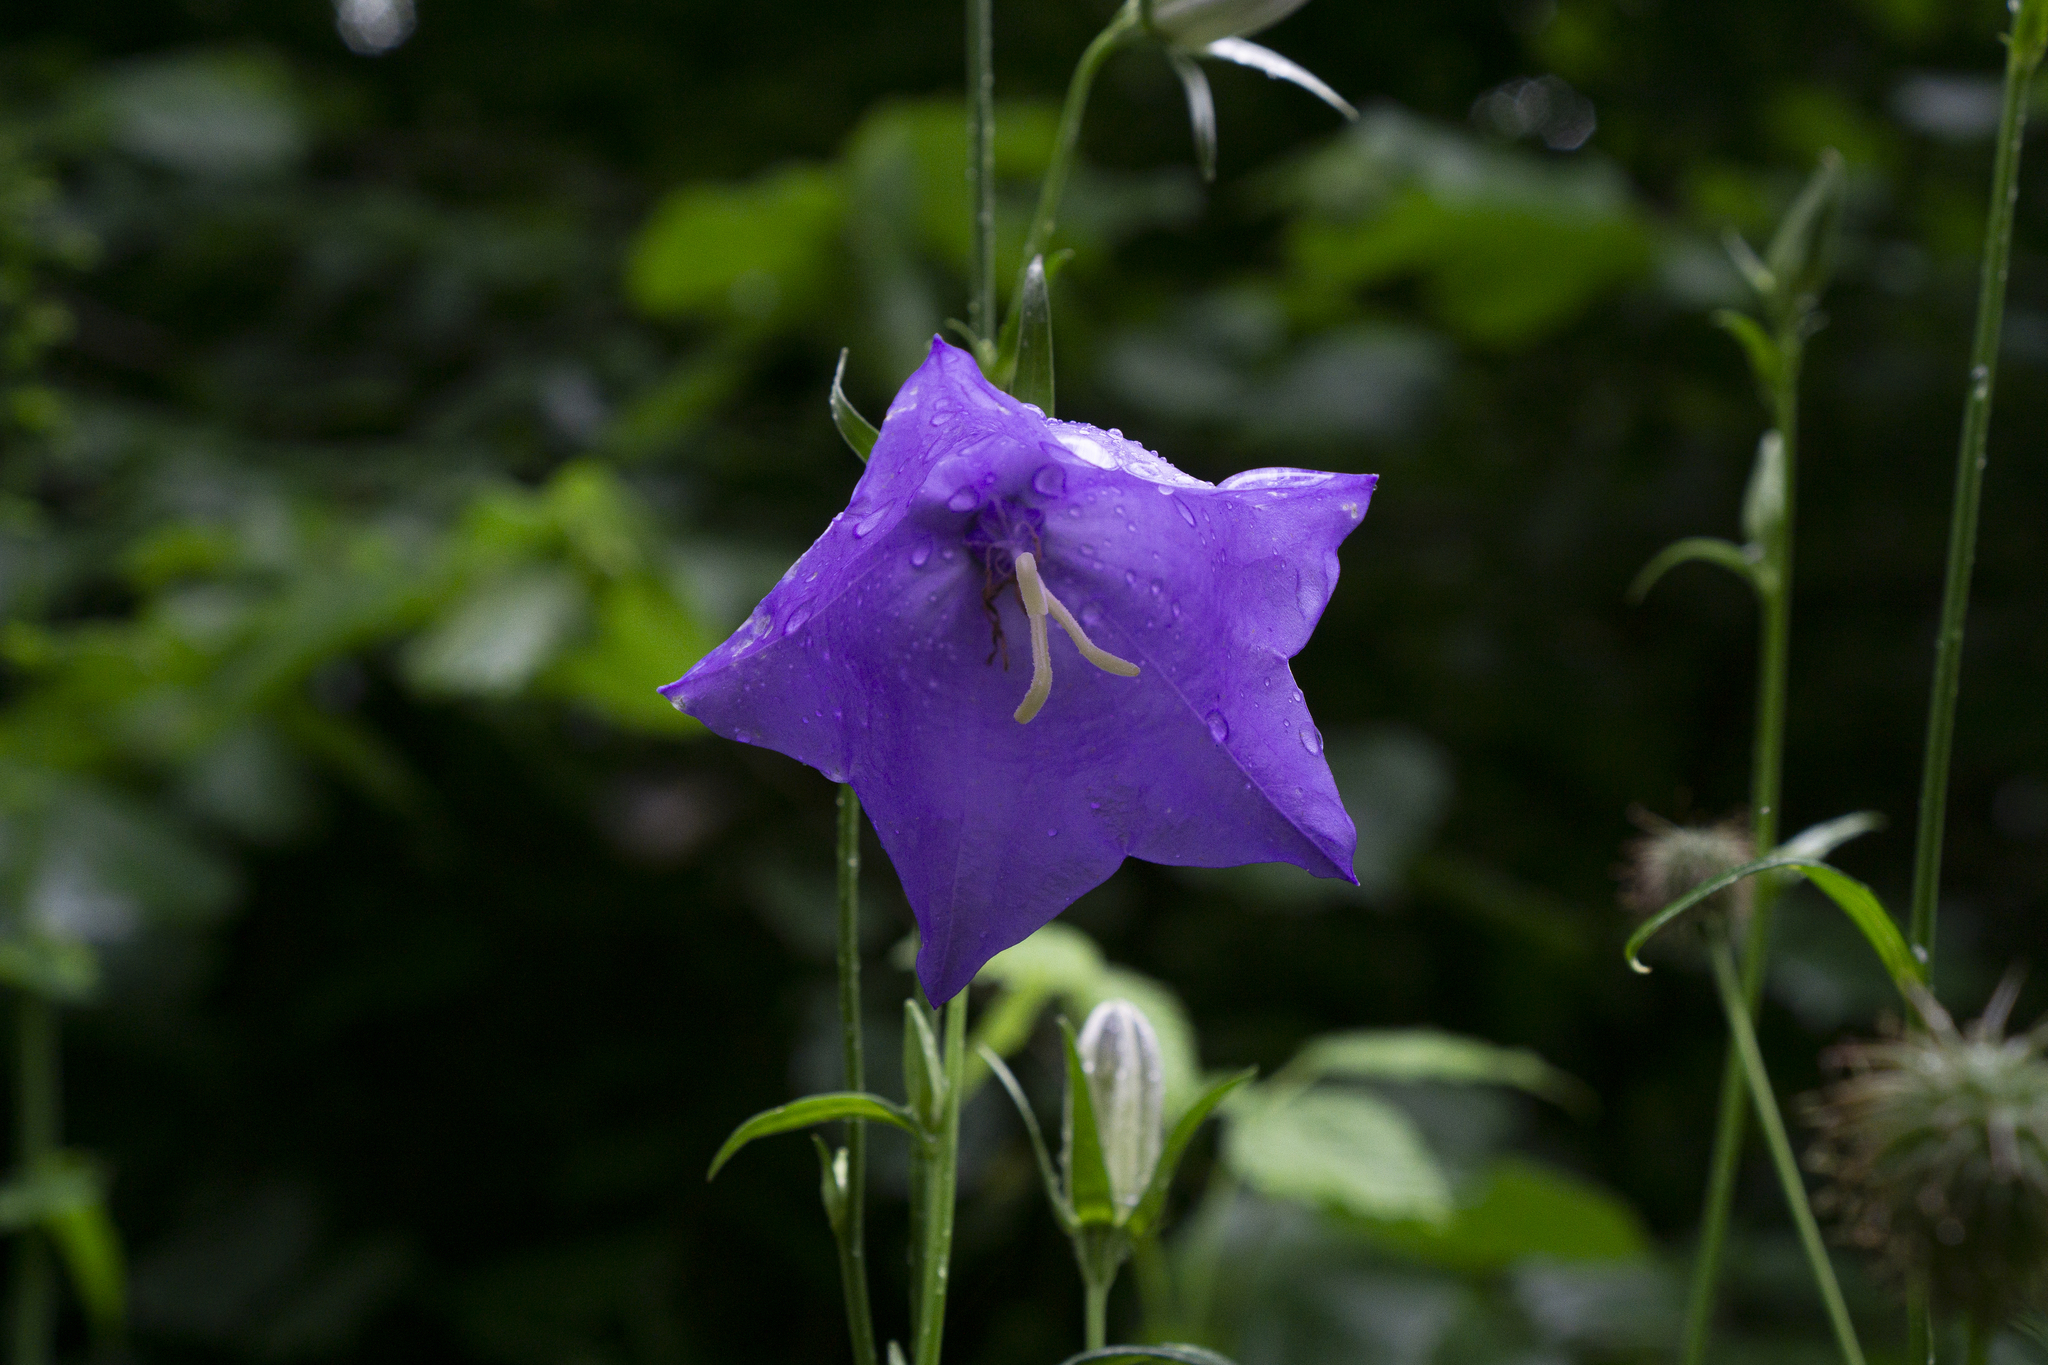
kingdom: Plantae
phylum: Tracheophyta
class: Magnoliopsida
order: Asterales
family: Campanulaceae
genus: Campanula
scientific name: Campanula persicifolia
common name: Peach-leaved bellflower
